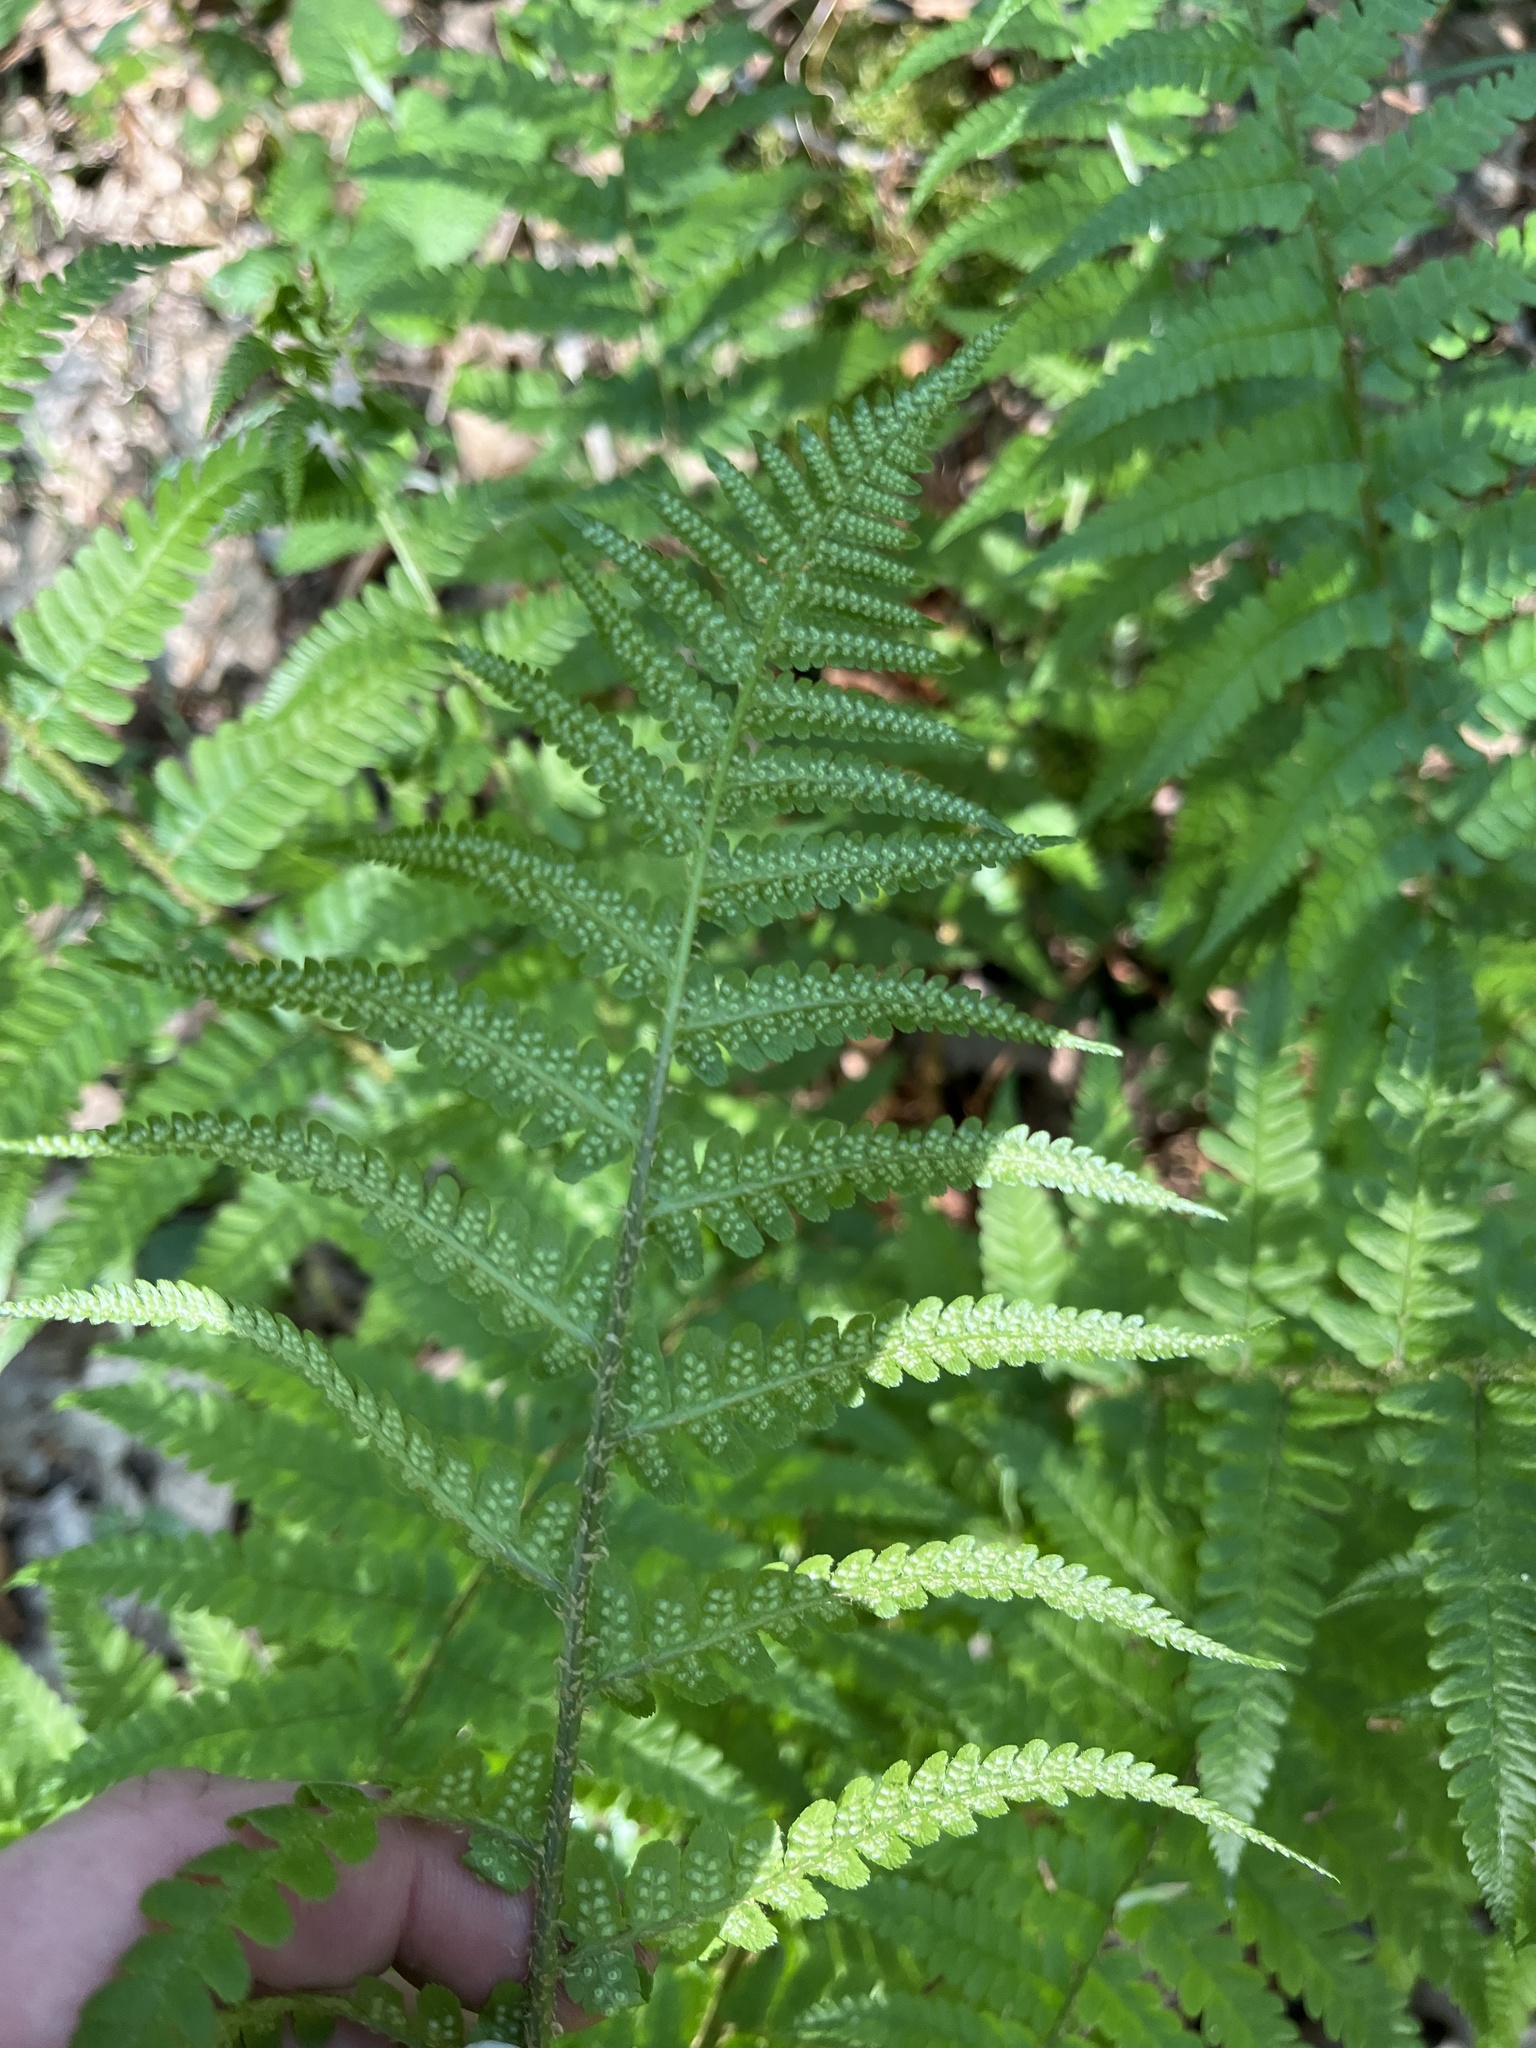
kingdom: Plantae
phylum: Tracheophyta
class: Polypodiopsida
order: Polypodiales
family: Dryopteridaceae
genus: Dryopteris
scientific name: Dryopteris filix-mas
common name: Male fern
